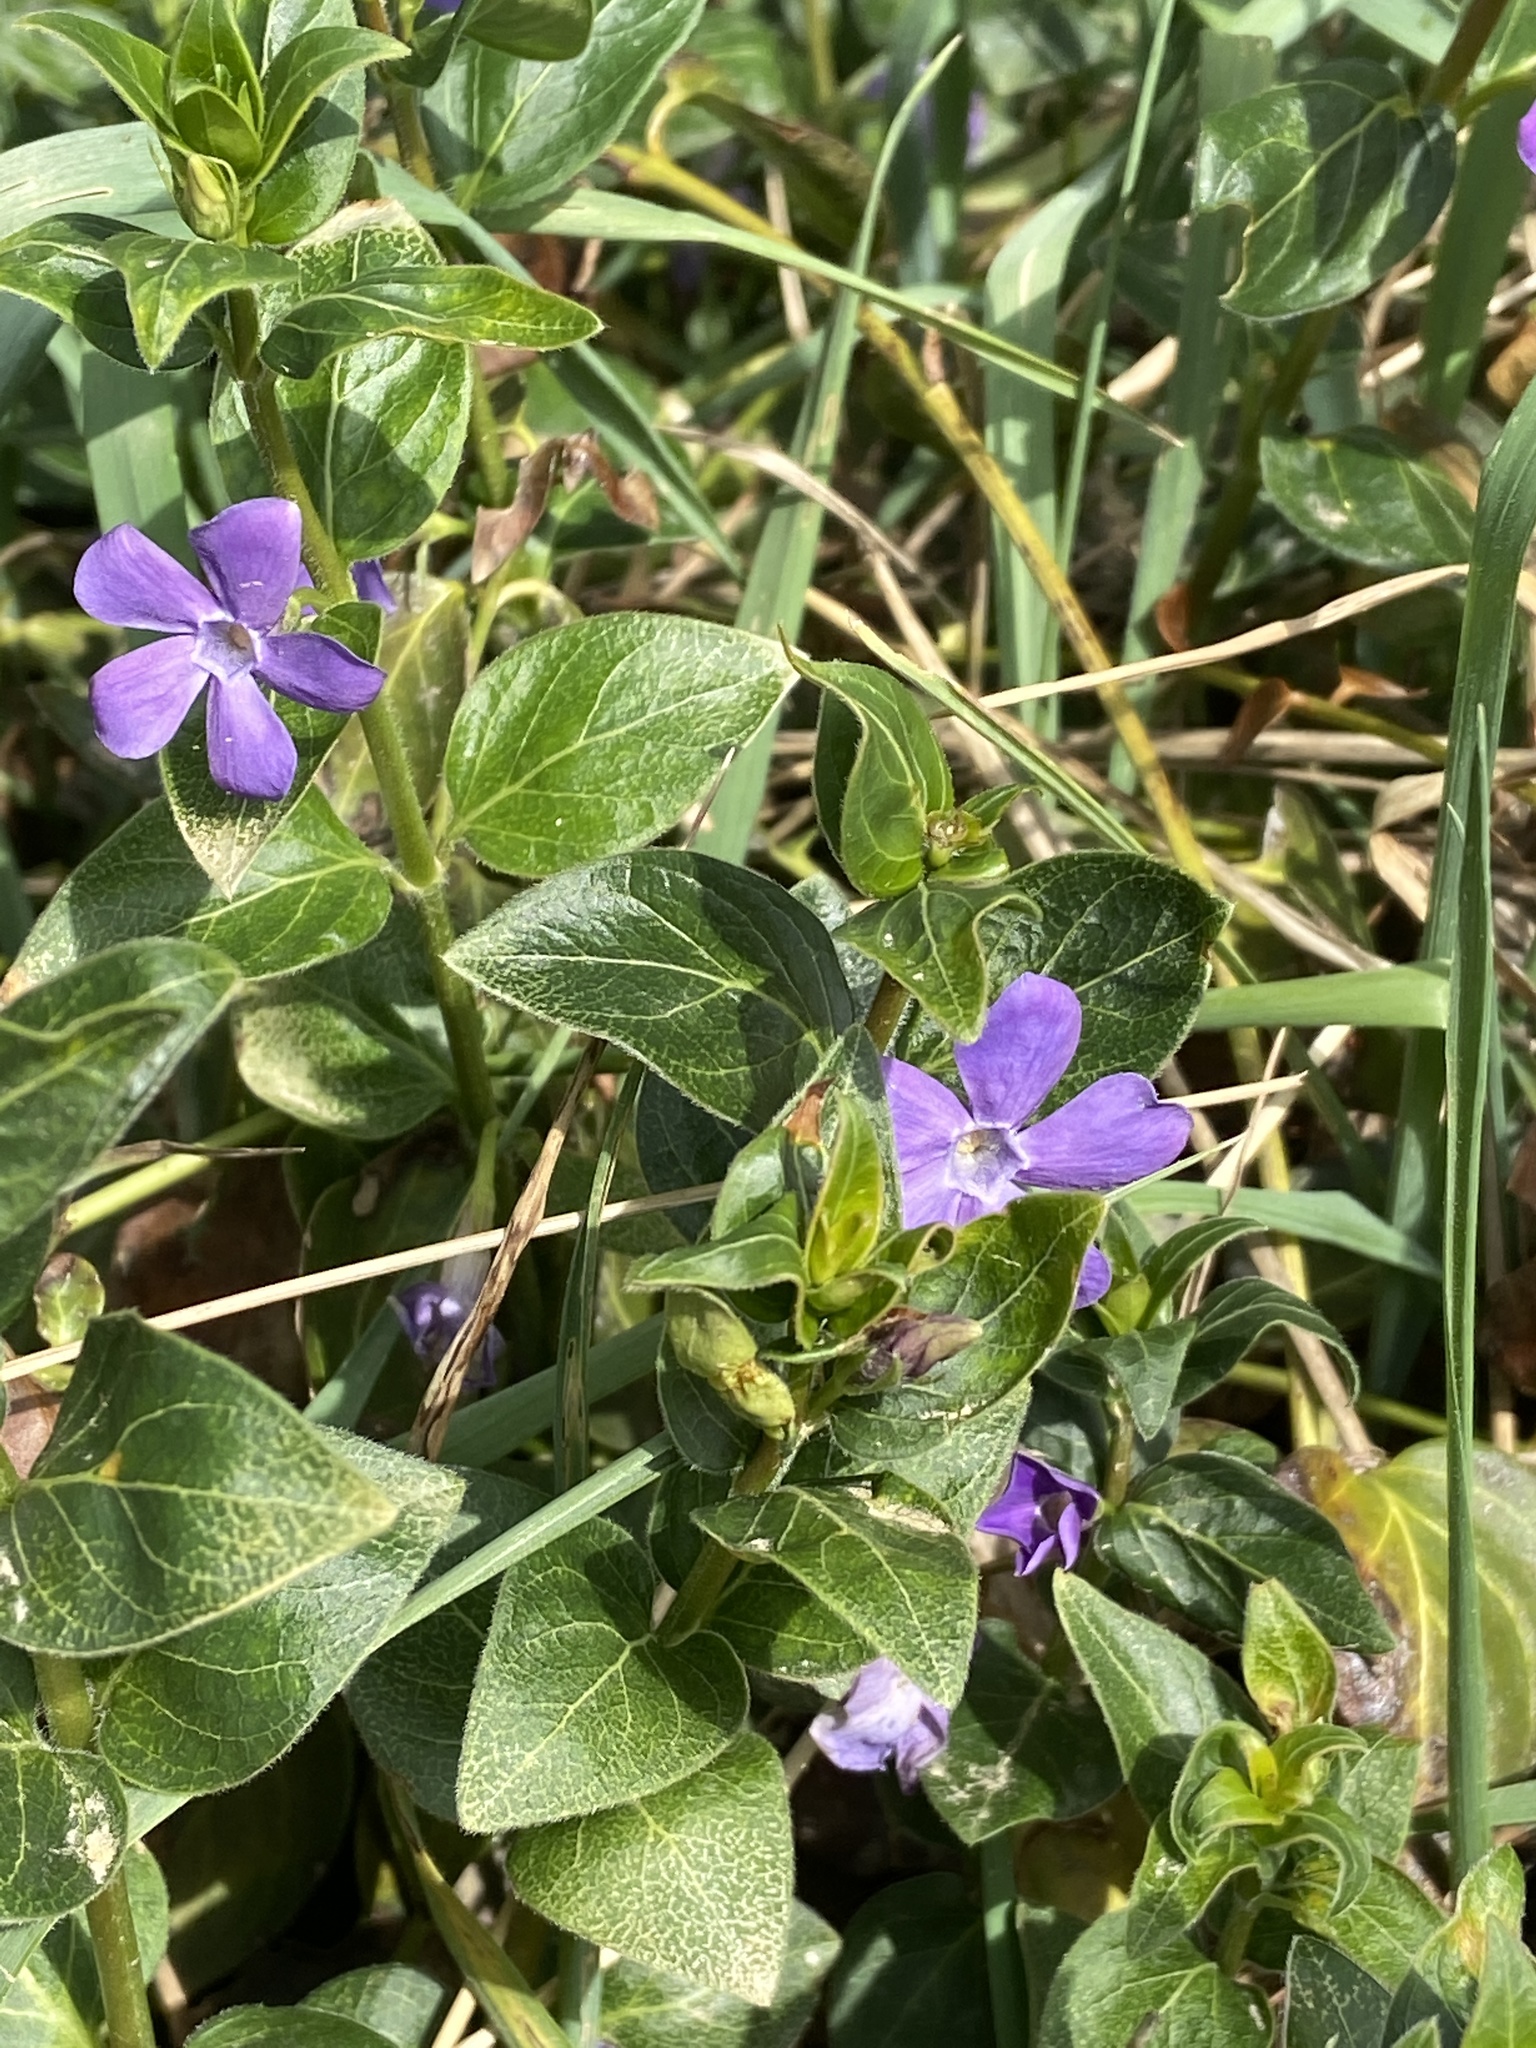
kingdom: Plantae
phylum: Tracheophyta
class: Magnoliopsida
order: Gentianales
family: Apocynaceae
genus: Vinca
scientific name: Vinca major
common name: Greater periwinkle
